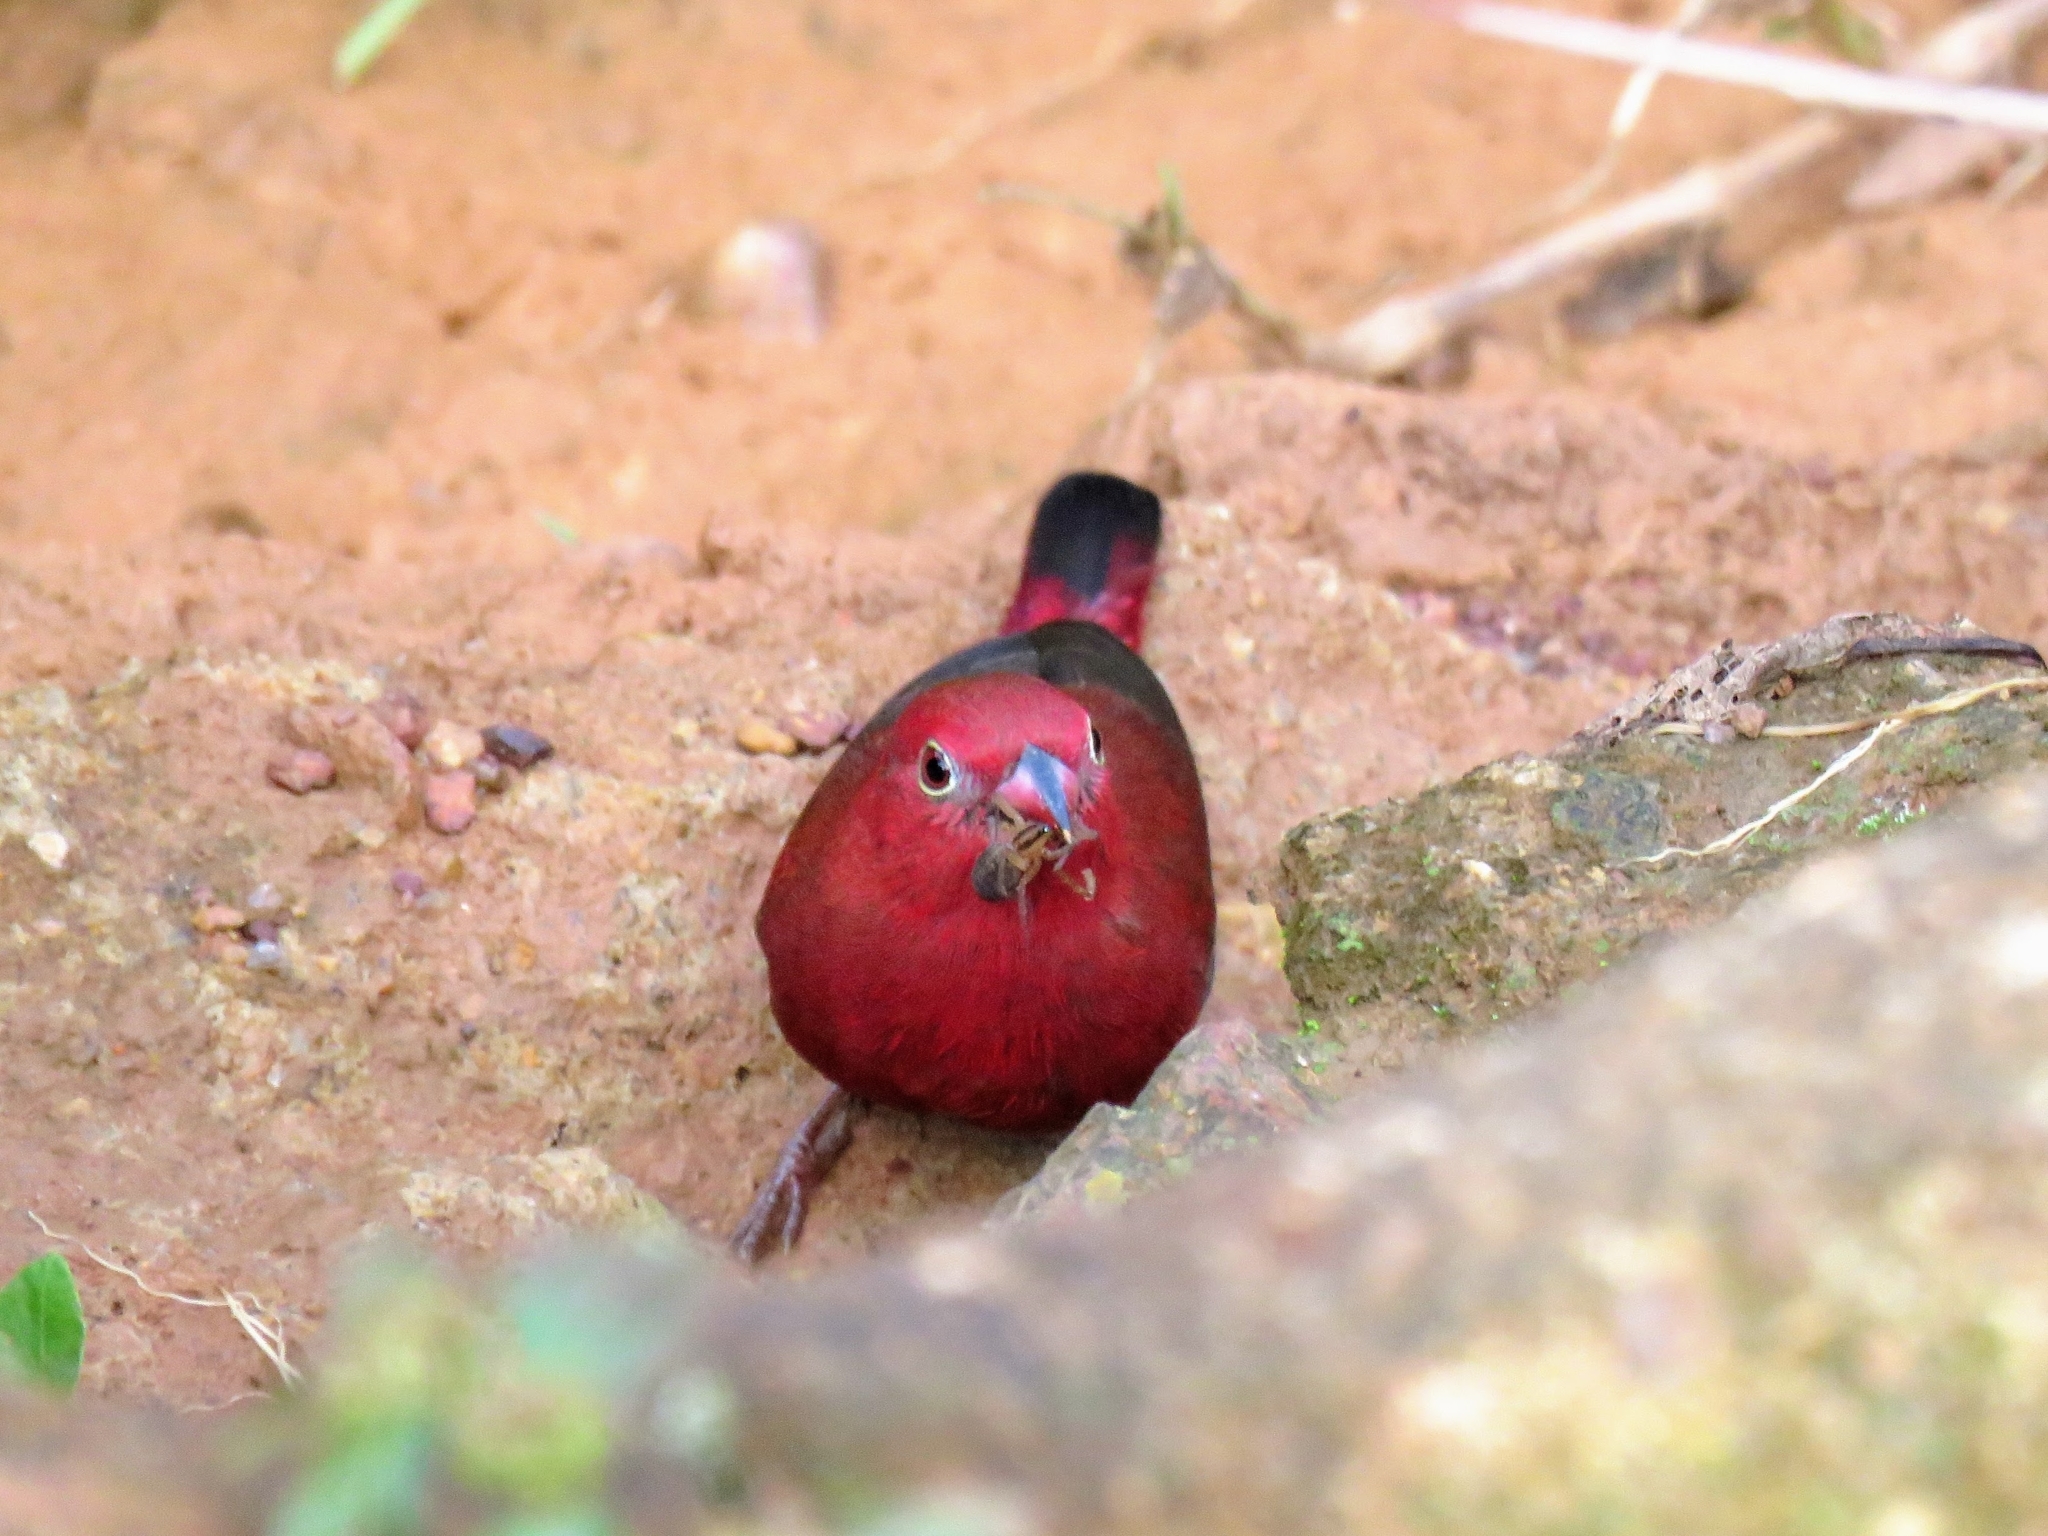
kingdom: Animalia
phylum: Chordata
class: Aves
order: Passeriformes
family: Estrildidae
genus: Lagonosticta
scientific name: Lagonosticta senegala
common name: Red-billed firefinch
